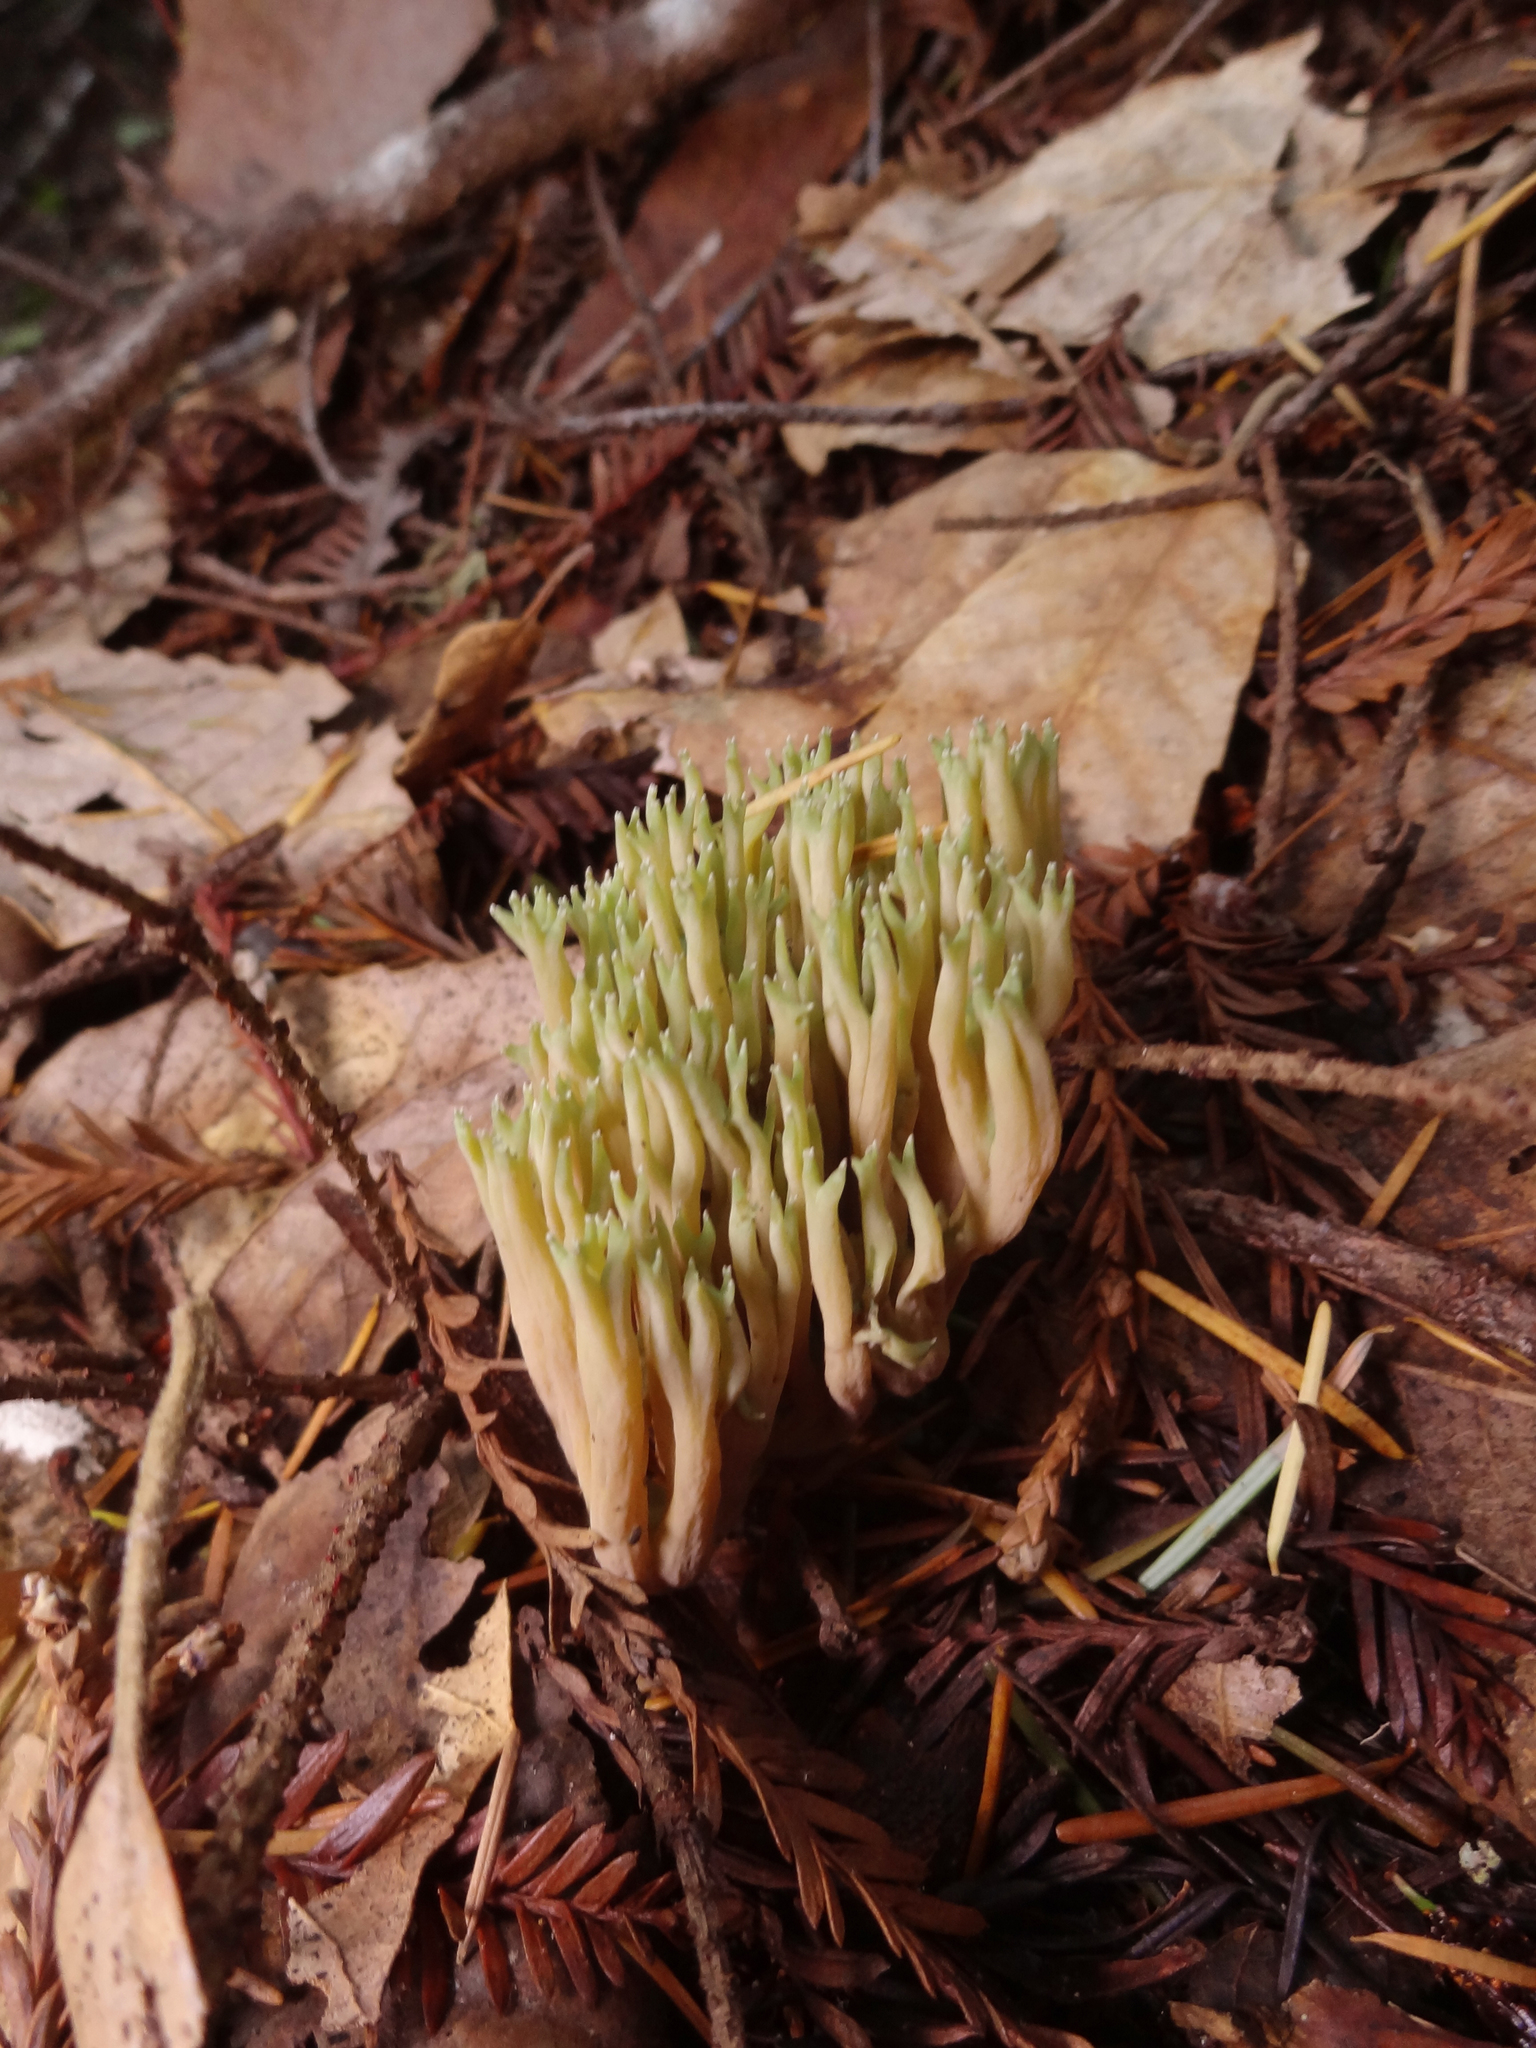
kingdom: Fungi
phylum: Basidiomycota
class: Agaricomycetes
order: Gomphales
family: Gomphaceae
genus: Ramaria
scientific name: Ramaria apiculata
